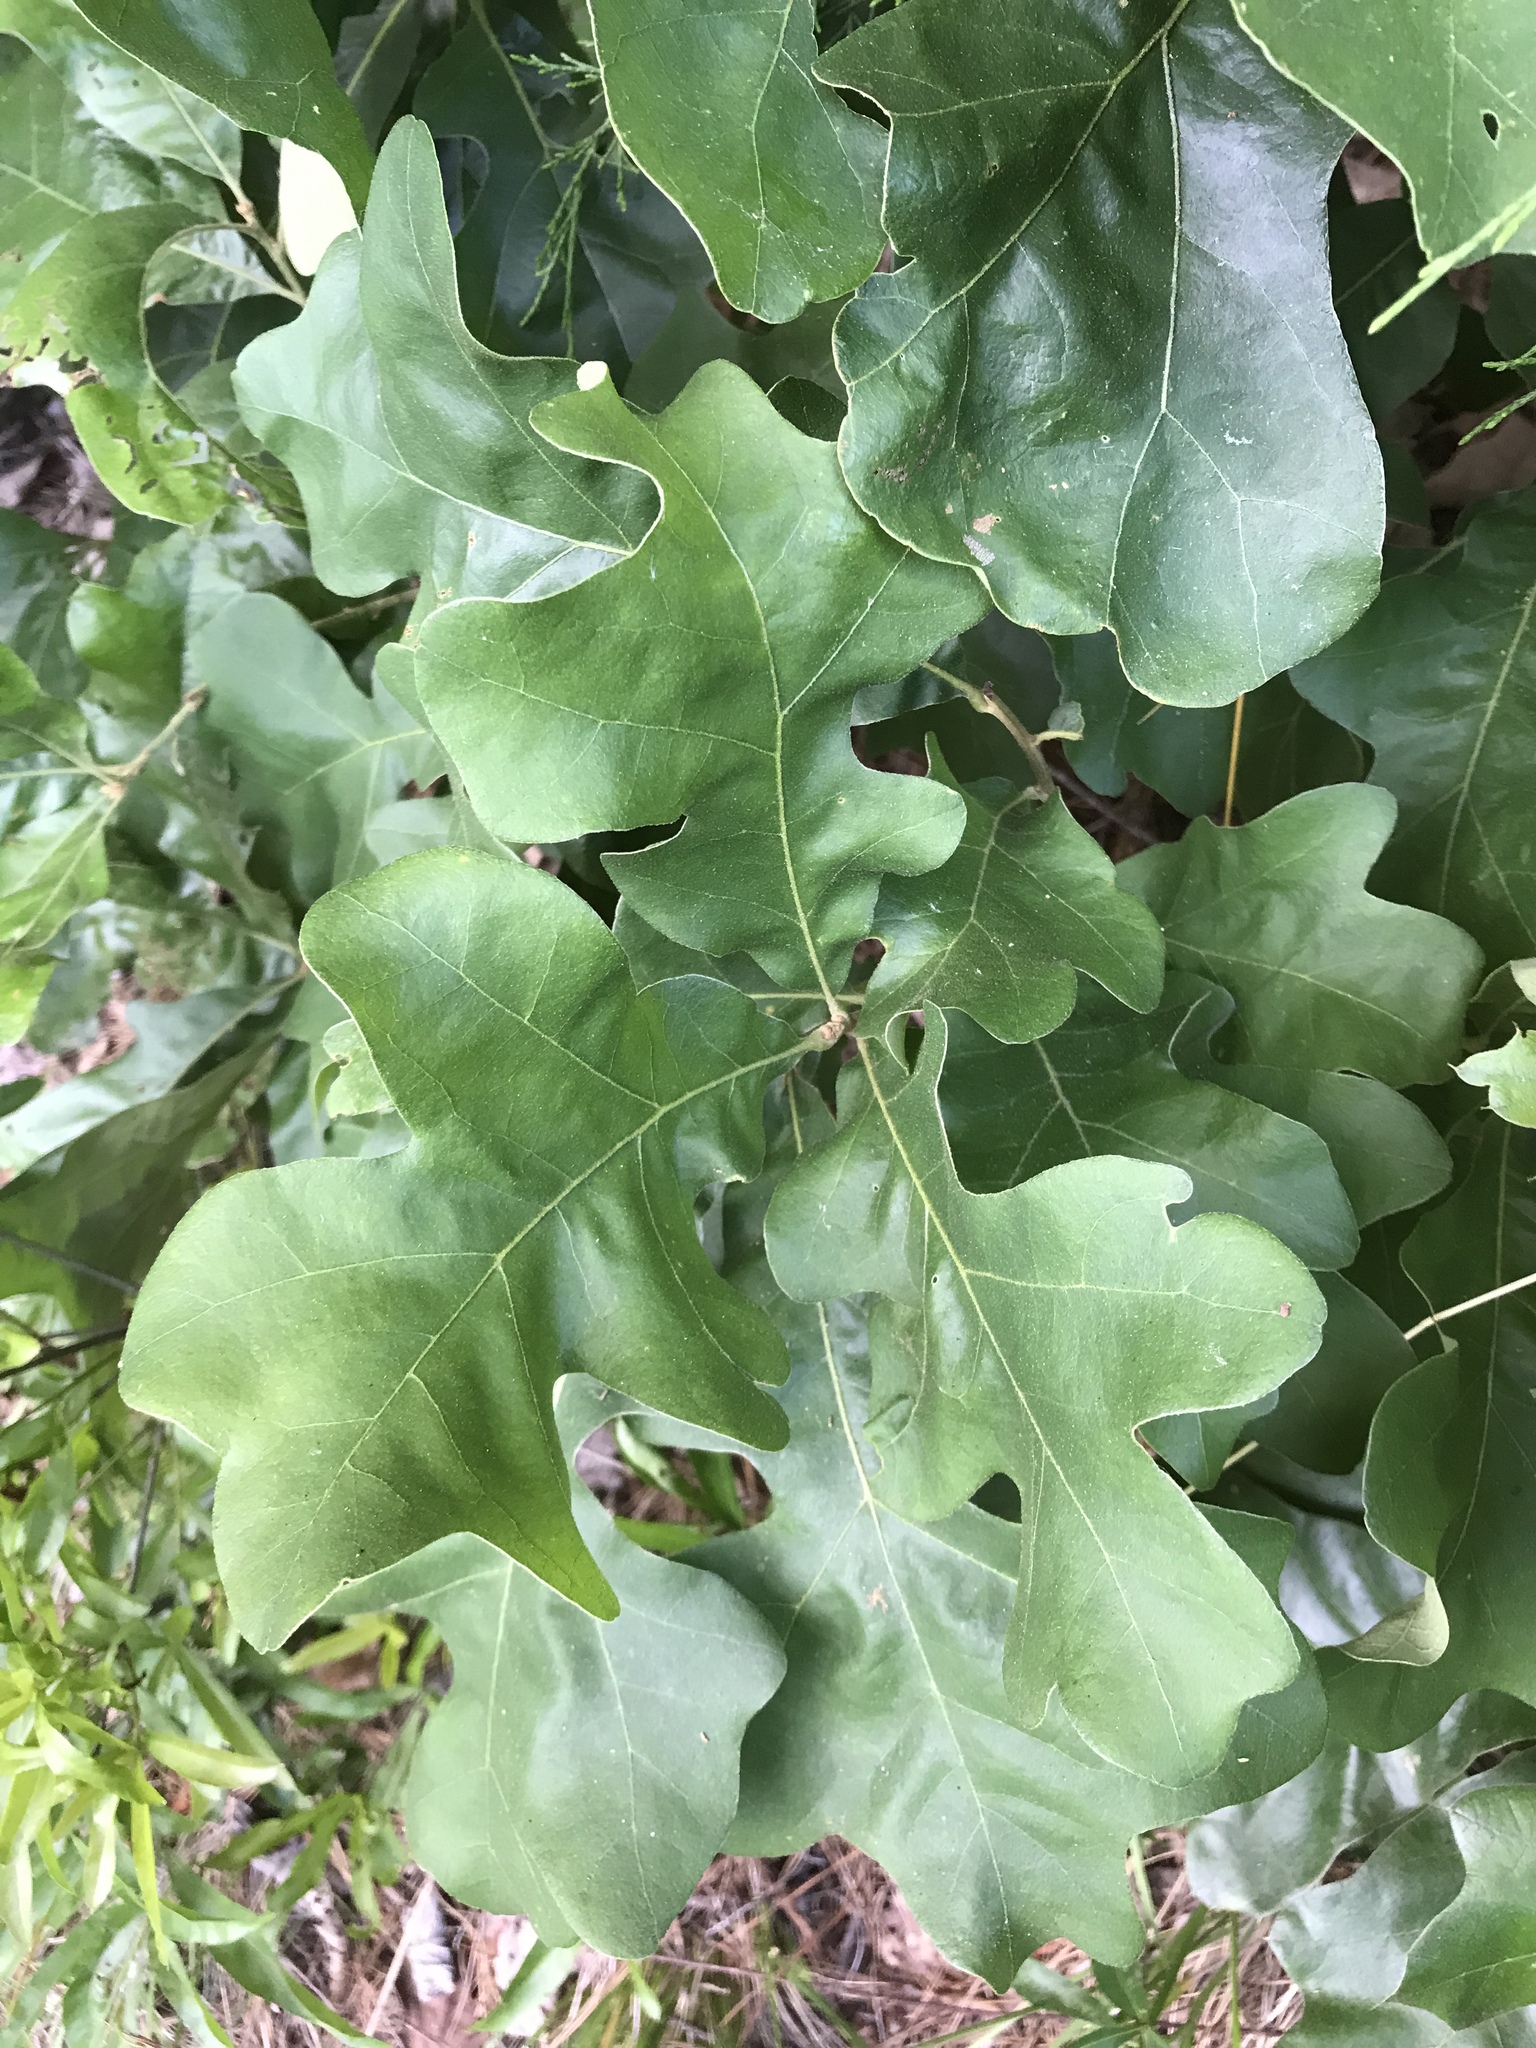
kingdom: Plantae
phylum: Tracheophyta
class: Magnoliopsida
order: Fagales
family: Fagaceae
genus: Quercus
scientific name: Quercus stellata
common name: Post oak
